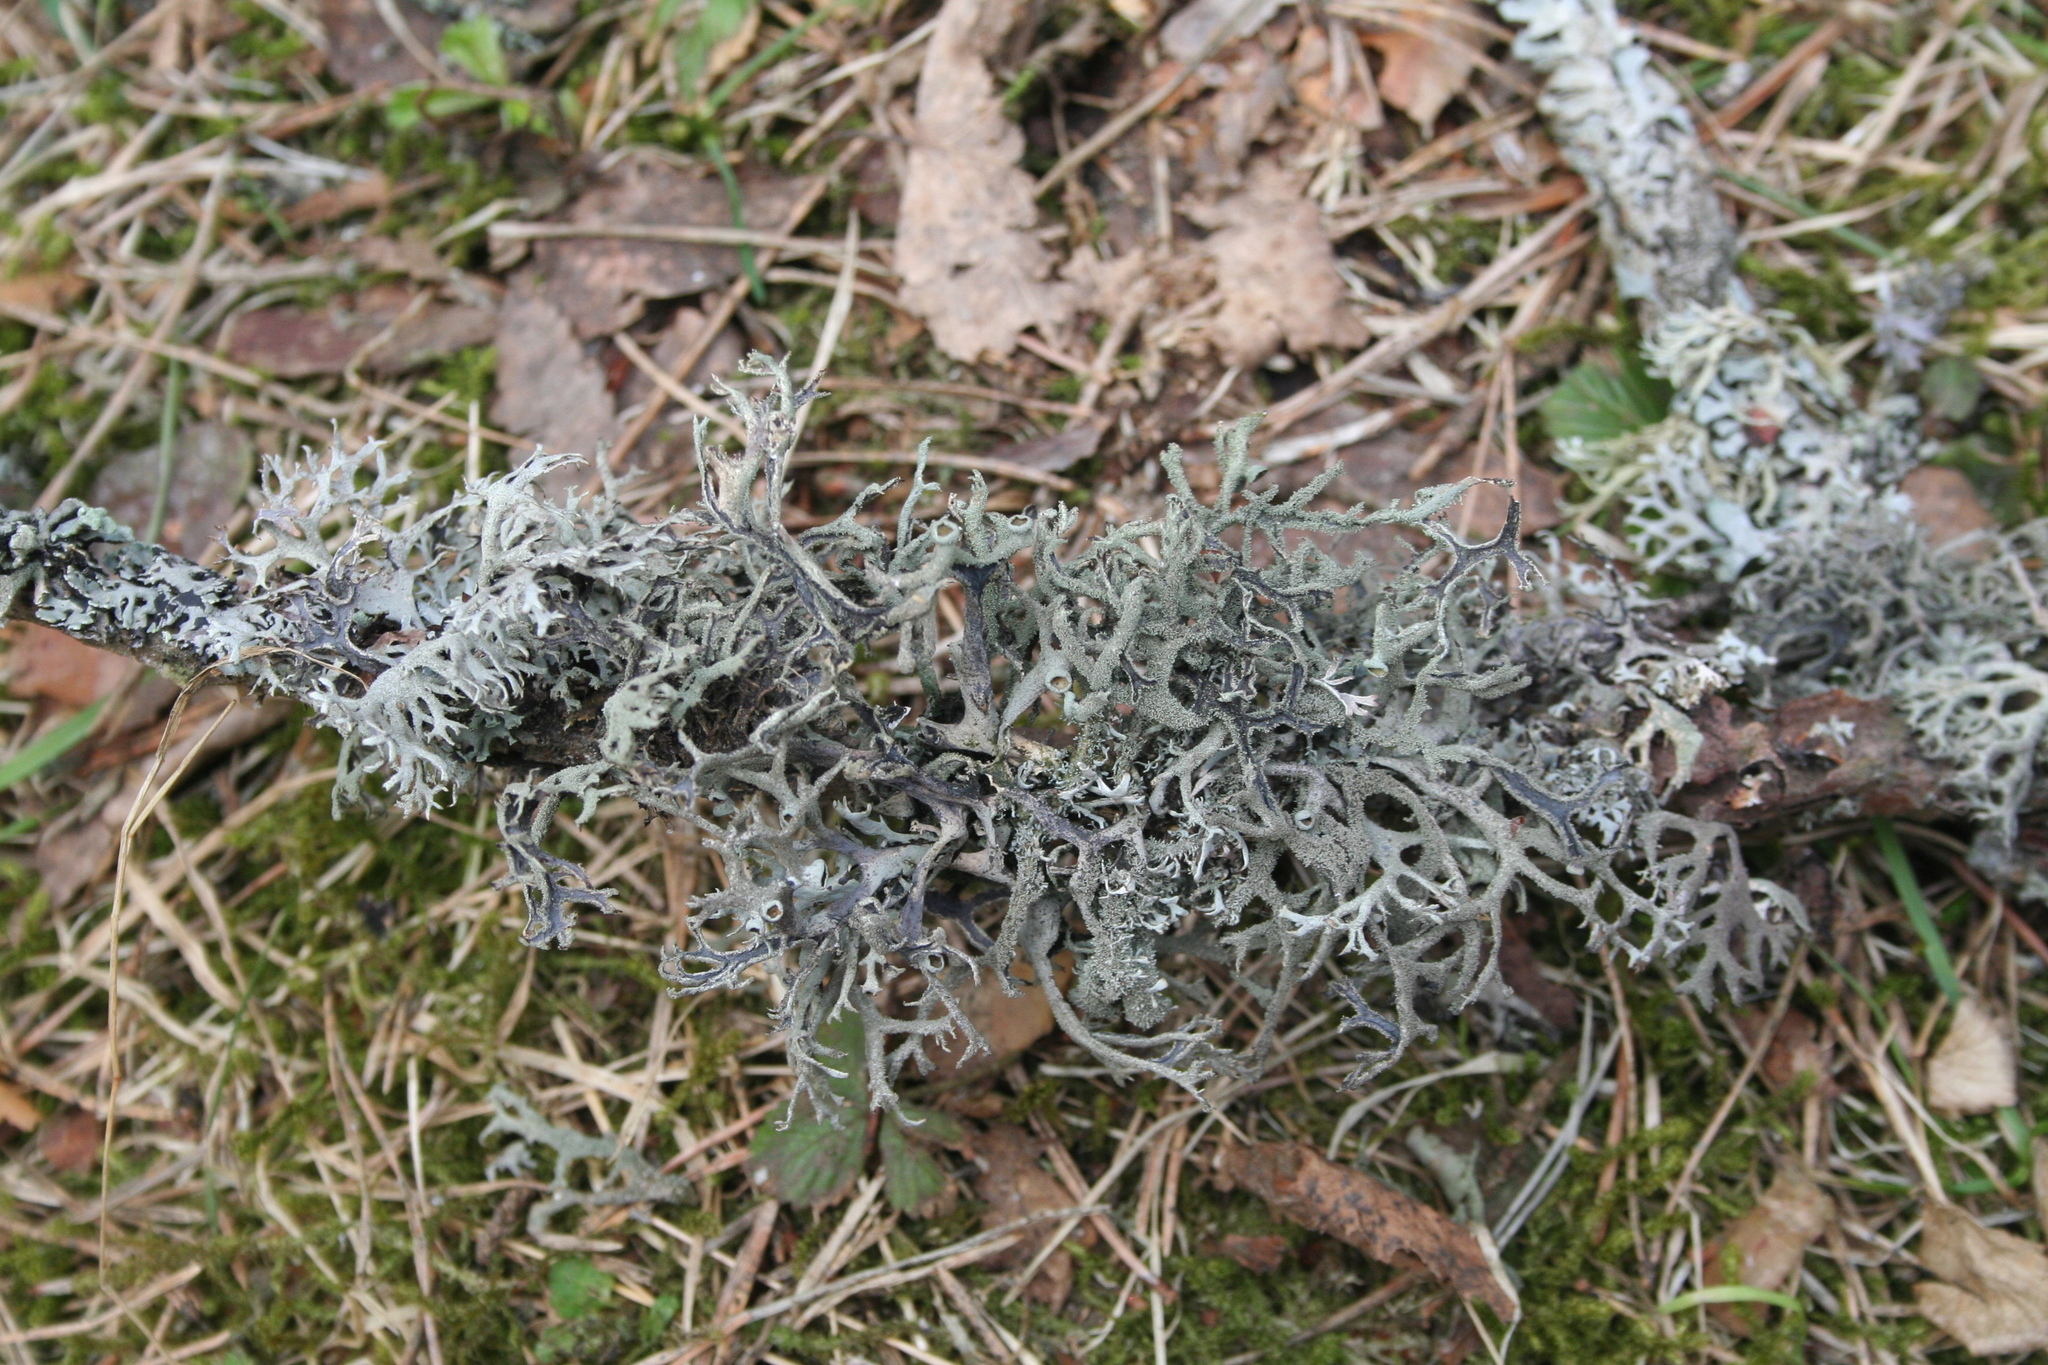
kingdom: Fungi
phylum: Ascomycota
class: Lecanoromycetes
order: Lecanorales
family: Parmeliaceae
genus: Pseudevernia
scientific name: Pseudevernia furfuracea
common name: Tree moss
